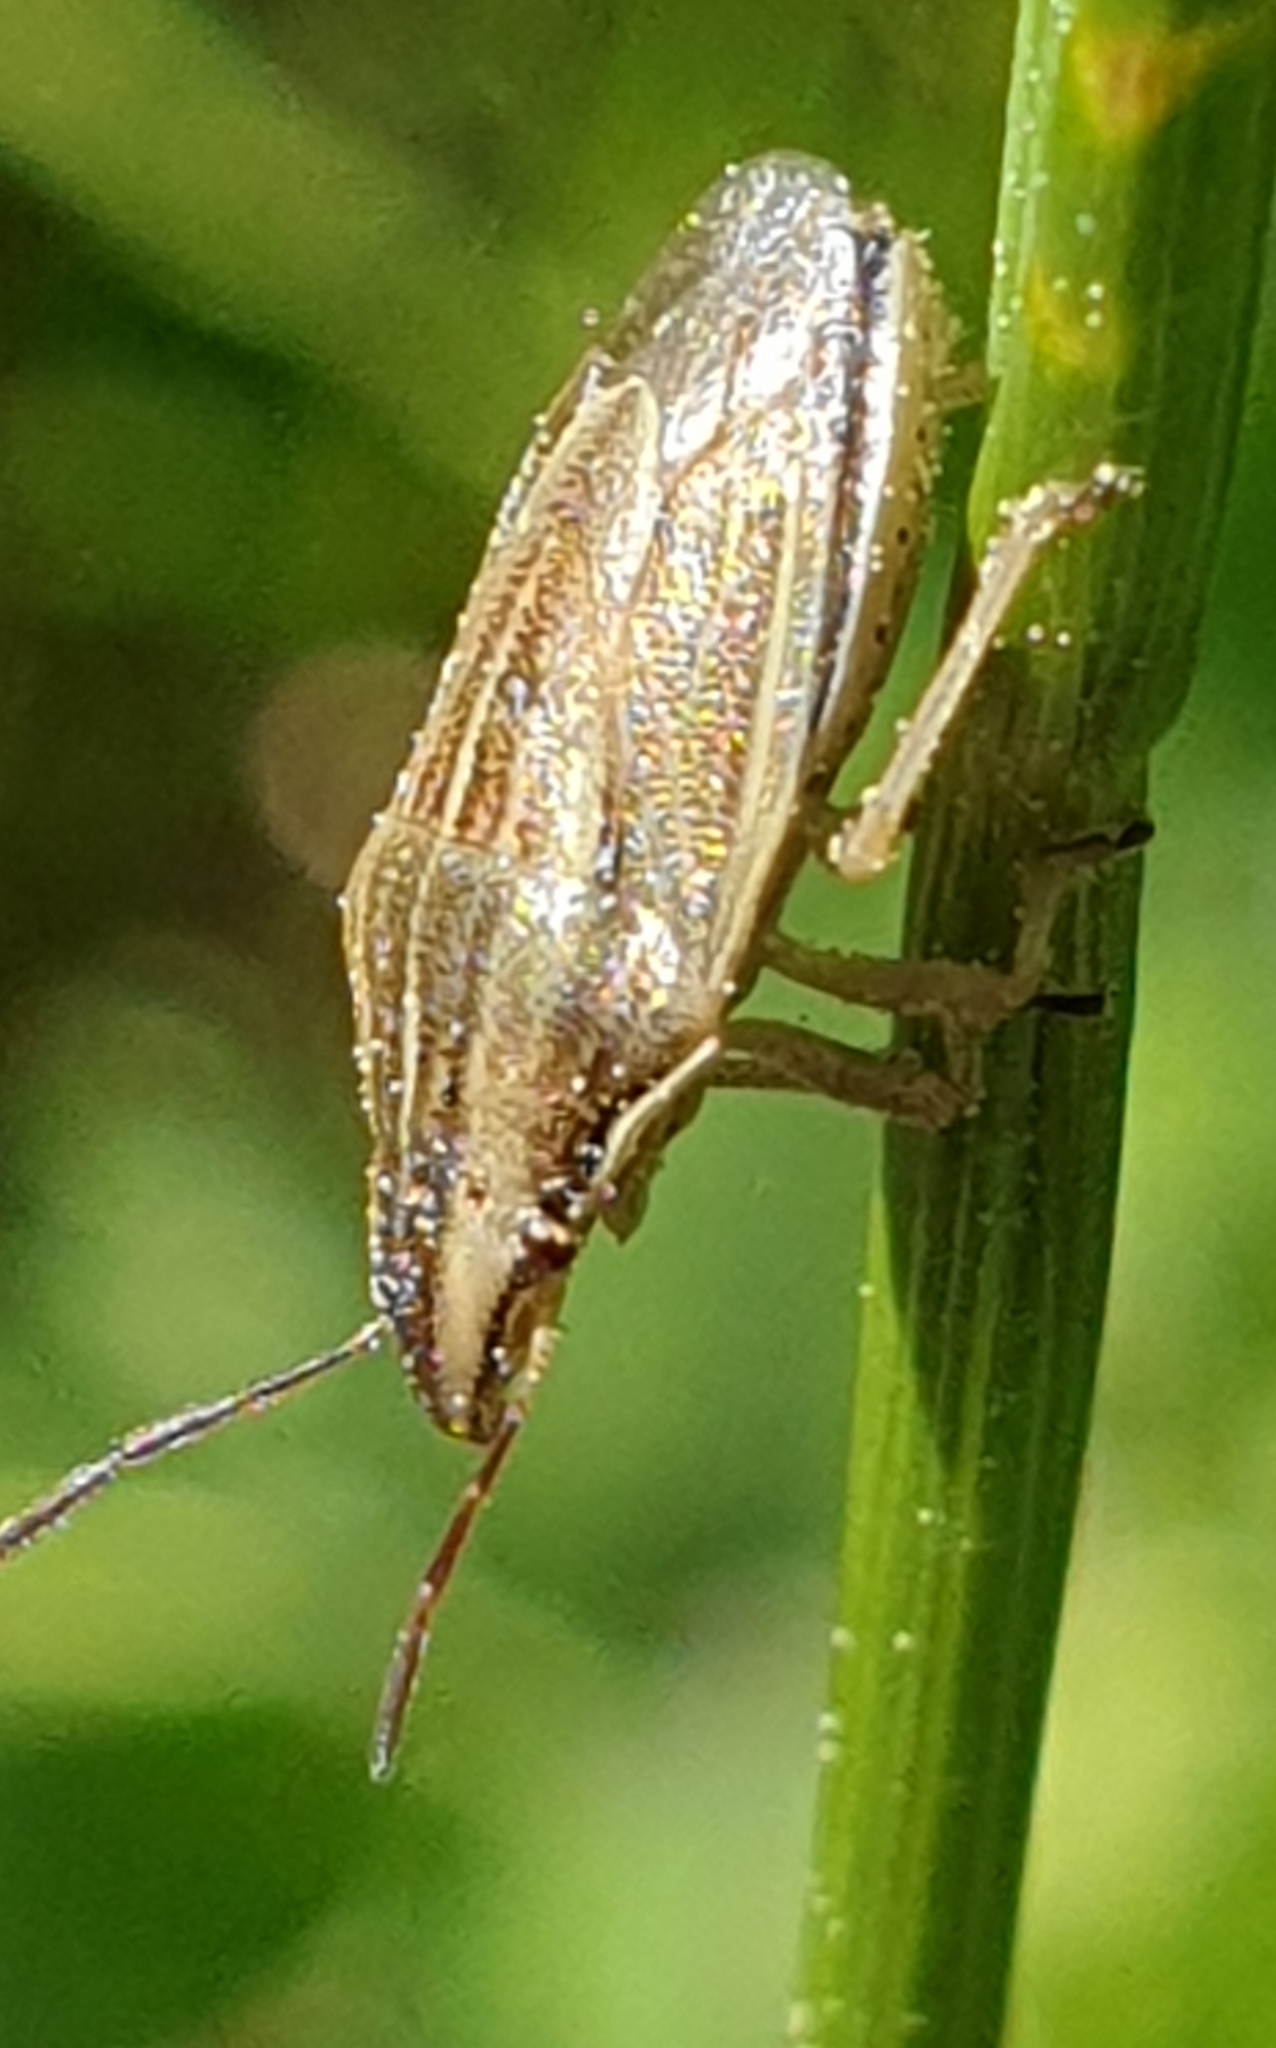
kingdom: Animalia
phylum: Arthropoda
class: Insecta
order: Hemiptera
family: Pentatomidae
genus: Aelia
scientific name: Aelia acuminata
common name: Bishop's mitre
